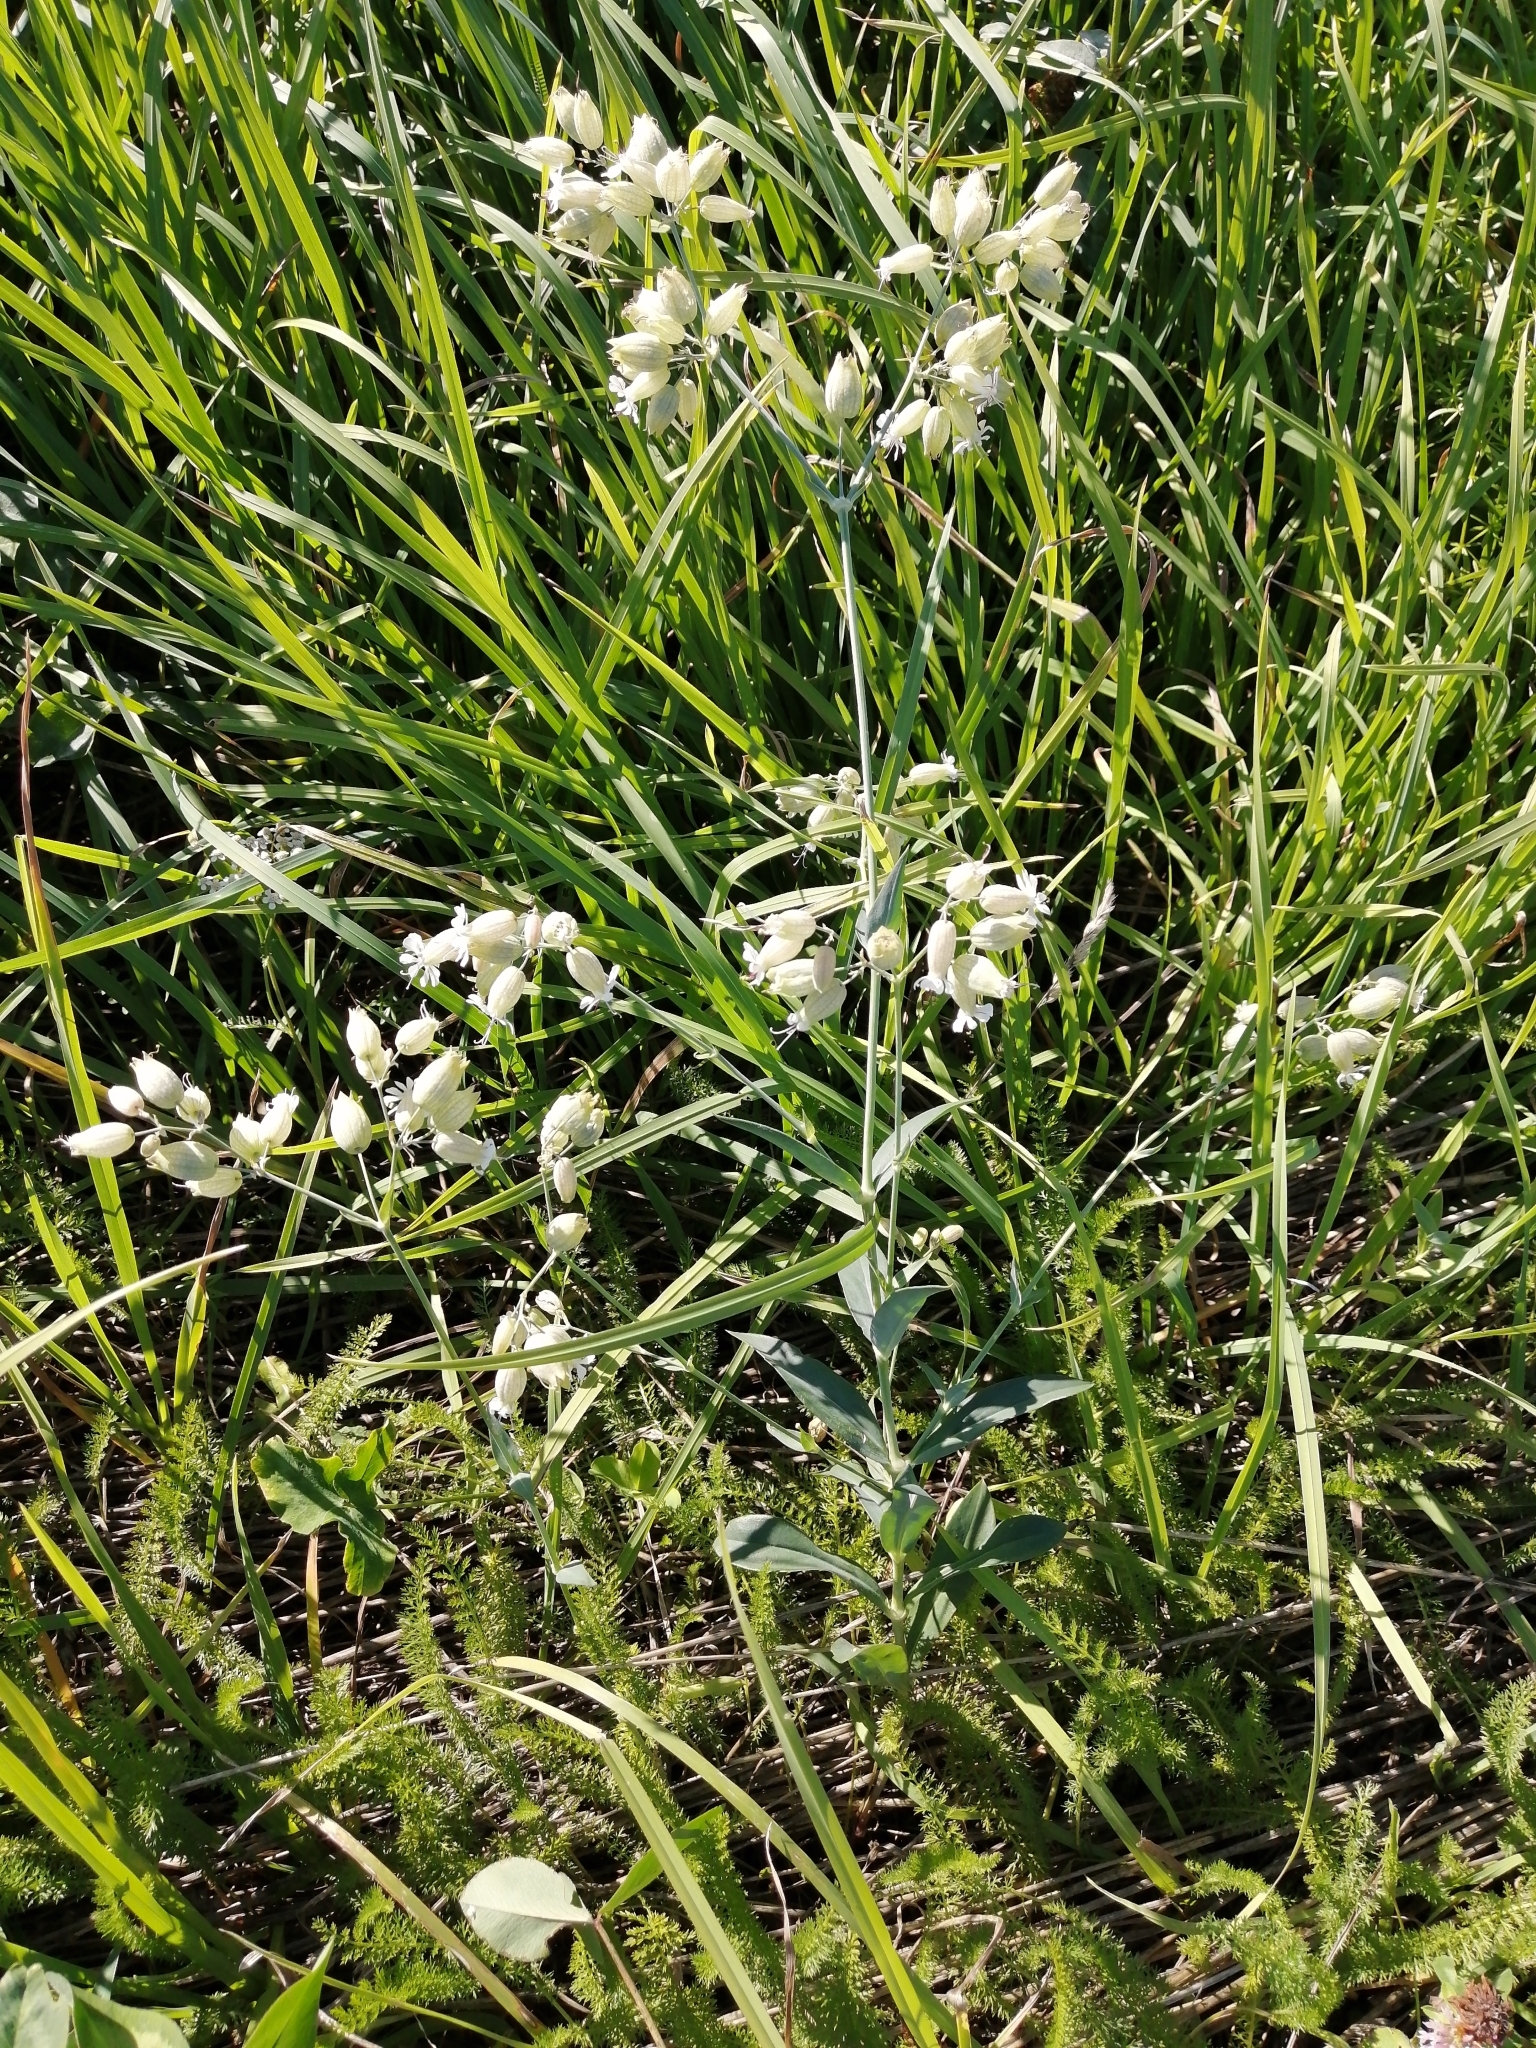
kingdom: Plantae
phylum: Tracheophyta
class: Magnoliopsida
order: Caryophyllales
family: Caryophyllaceae
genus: Silene
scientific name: Silene vulgaris
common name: Bladder campion
